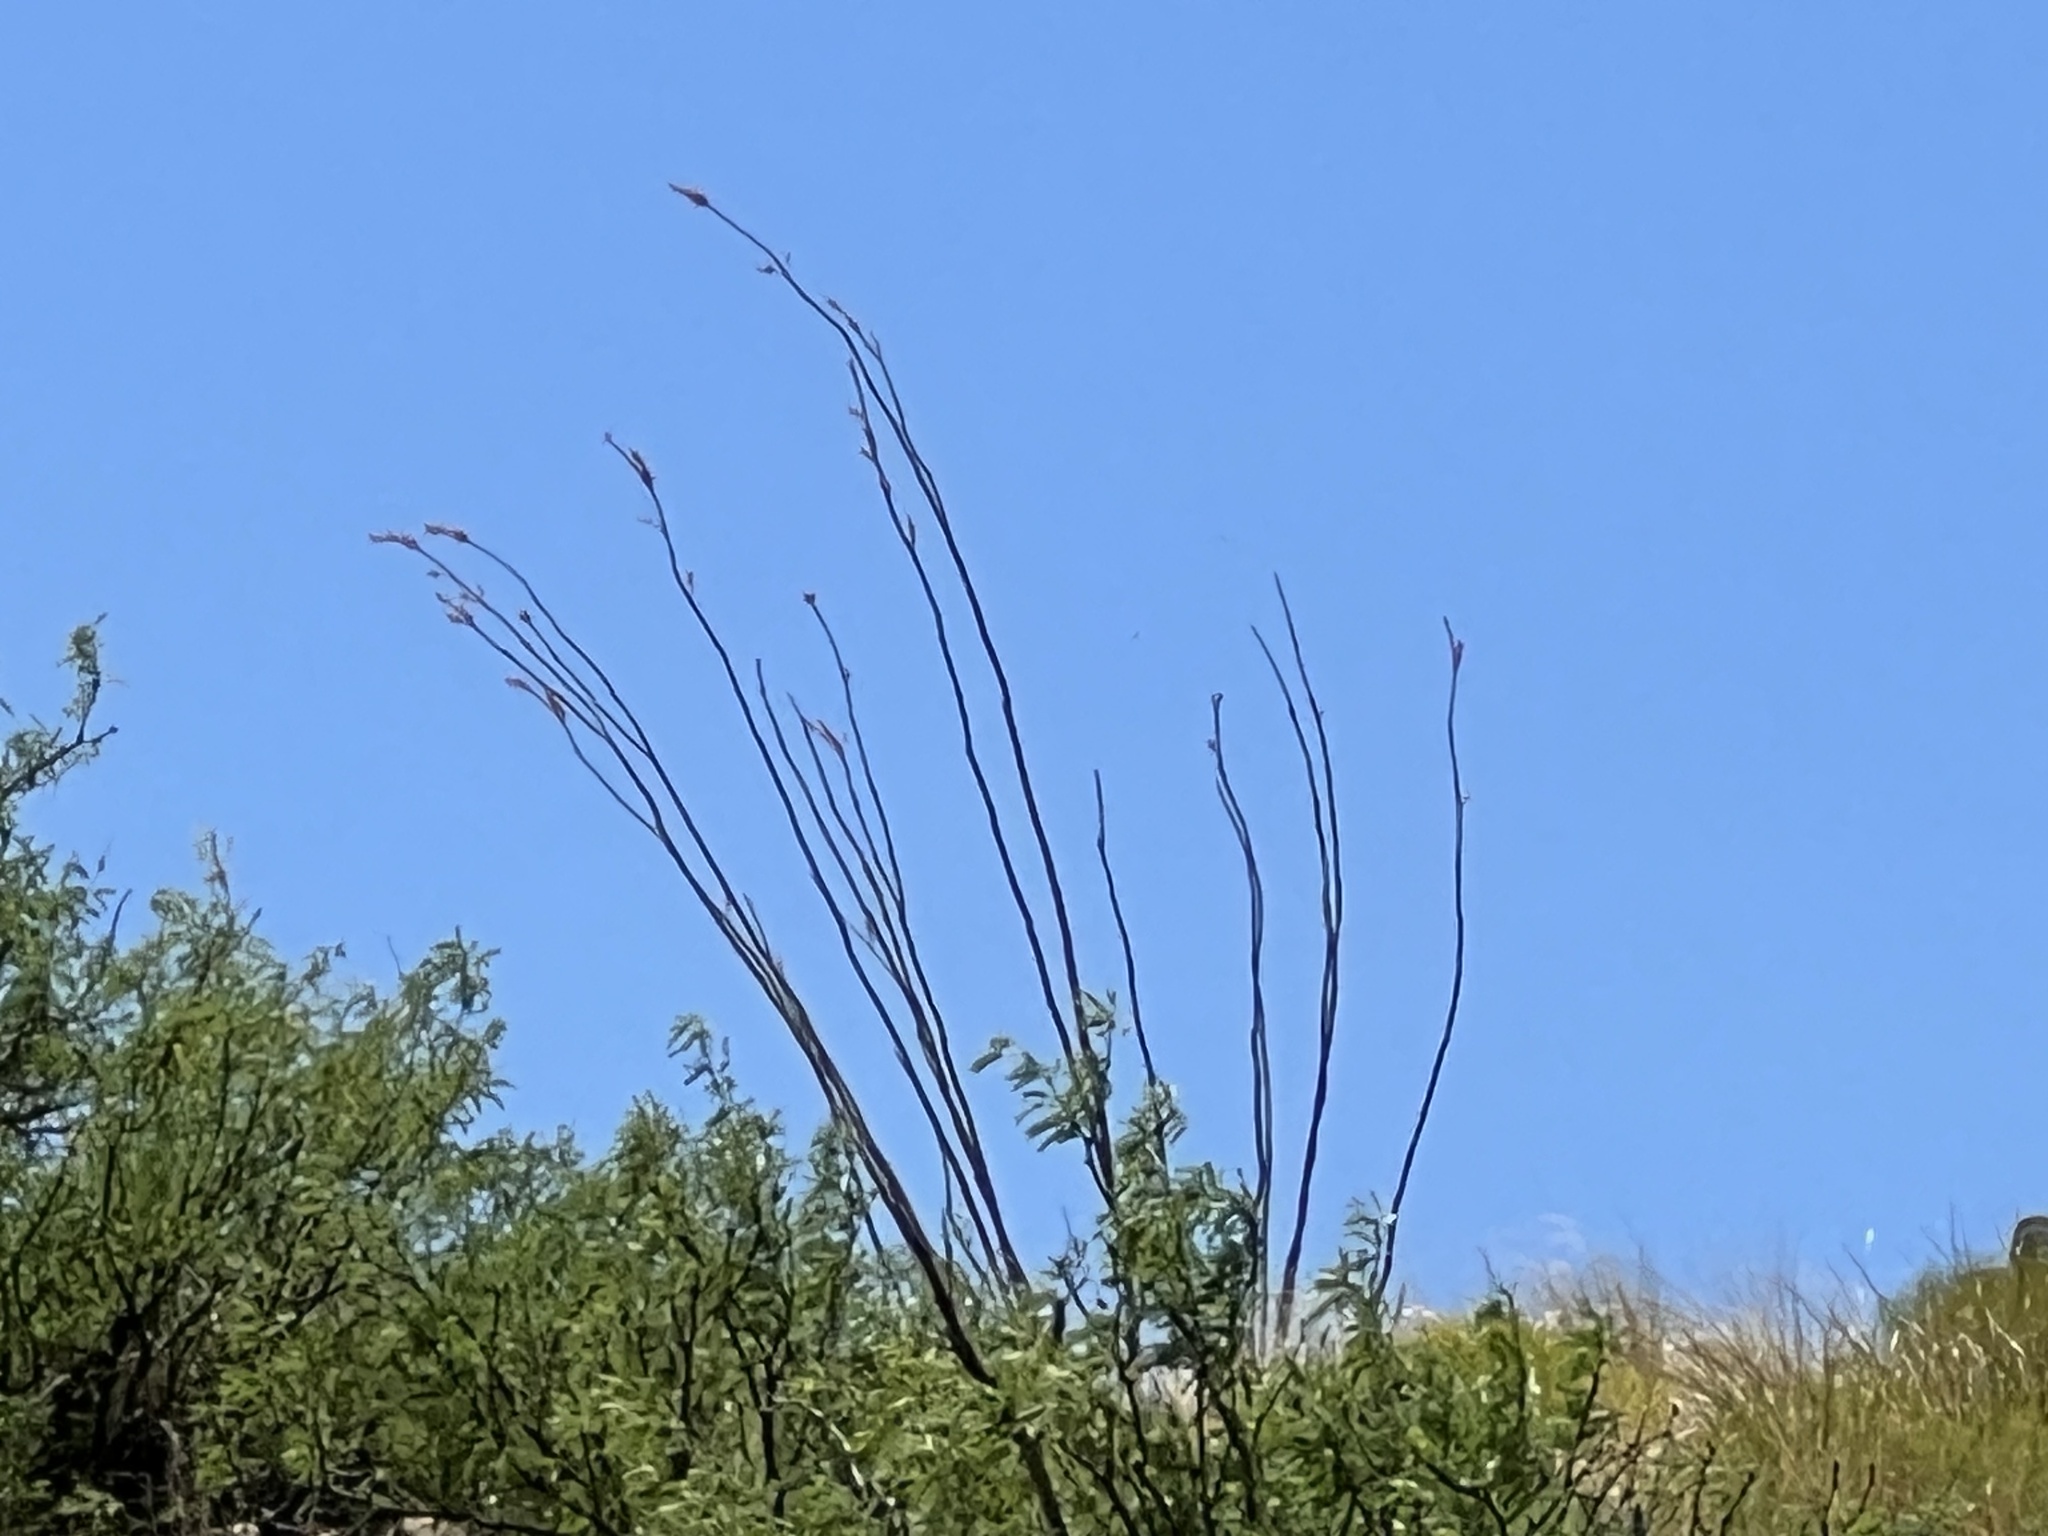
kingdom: Plantae
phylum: Tracheophyta
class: Magnoliopsida
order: Ericales
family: Fouquieriaceae
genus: Fouquieria
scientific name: Fouquieria splendens
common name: Vine-cactus
